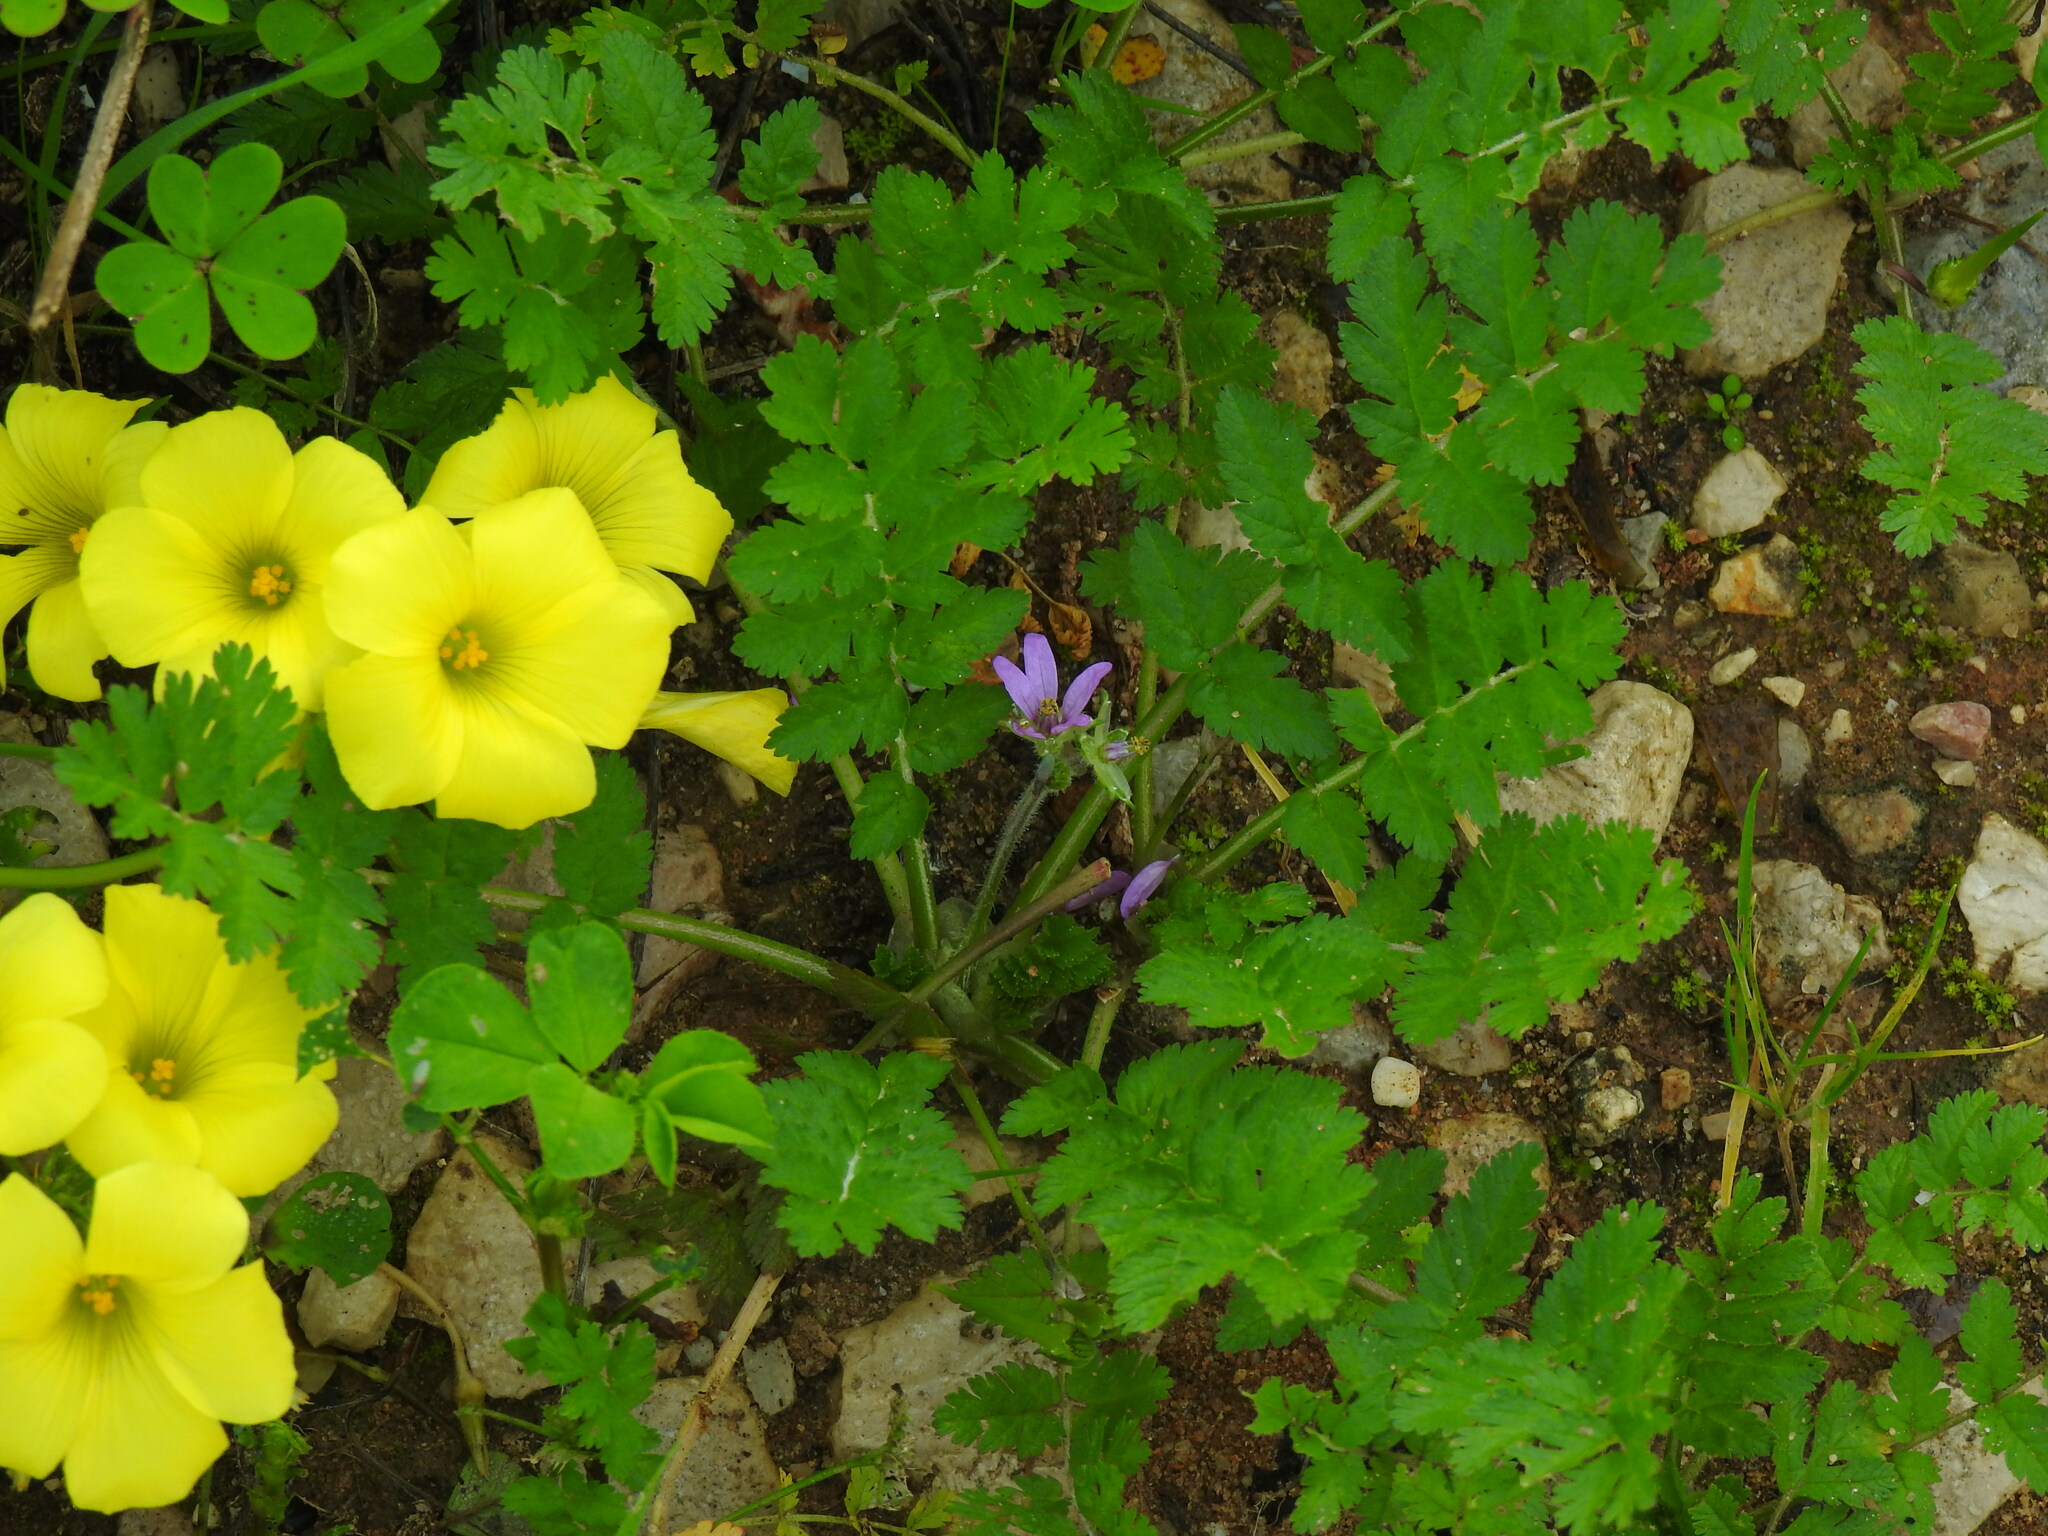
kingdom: Plantae
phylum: Tracheophyta
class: Magnoliopsida
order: Geraniales
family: Geraniaceae
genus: Erodium
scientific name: Erodium moschatum
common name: Musk stork's-bill
